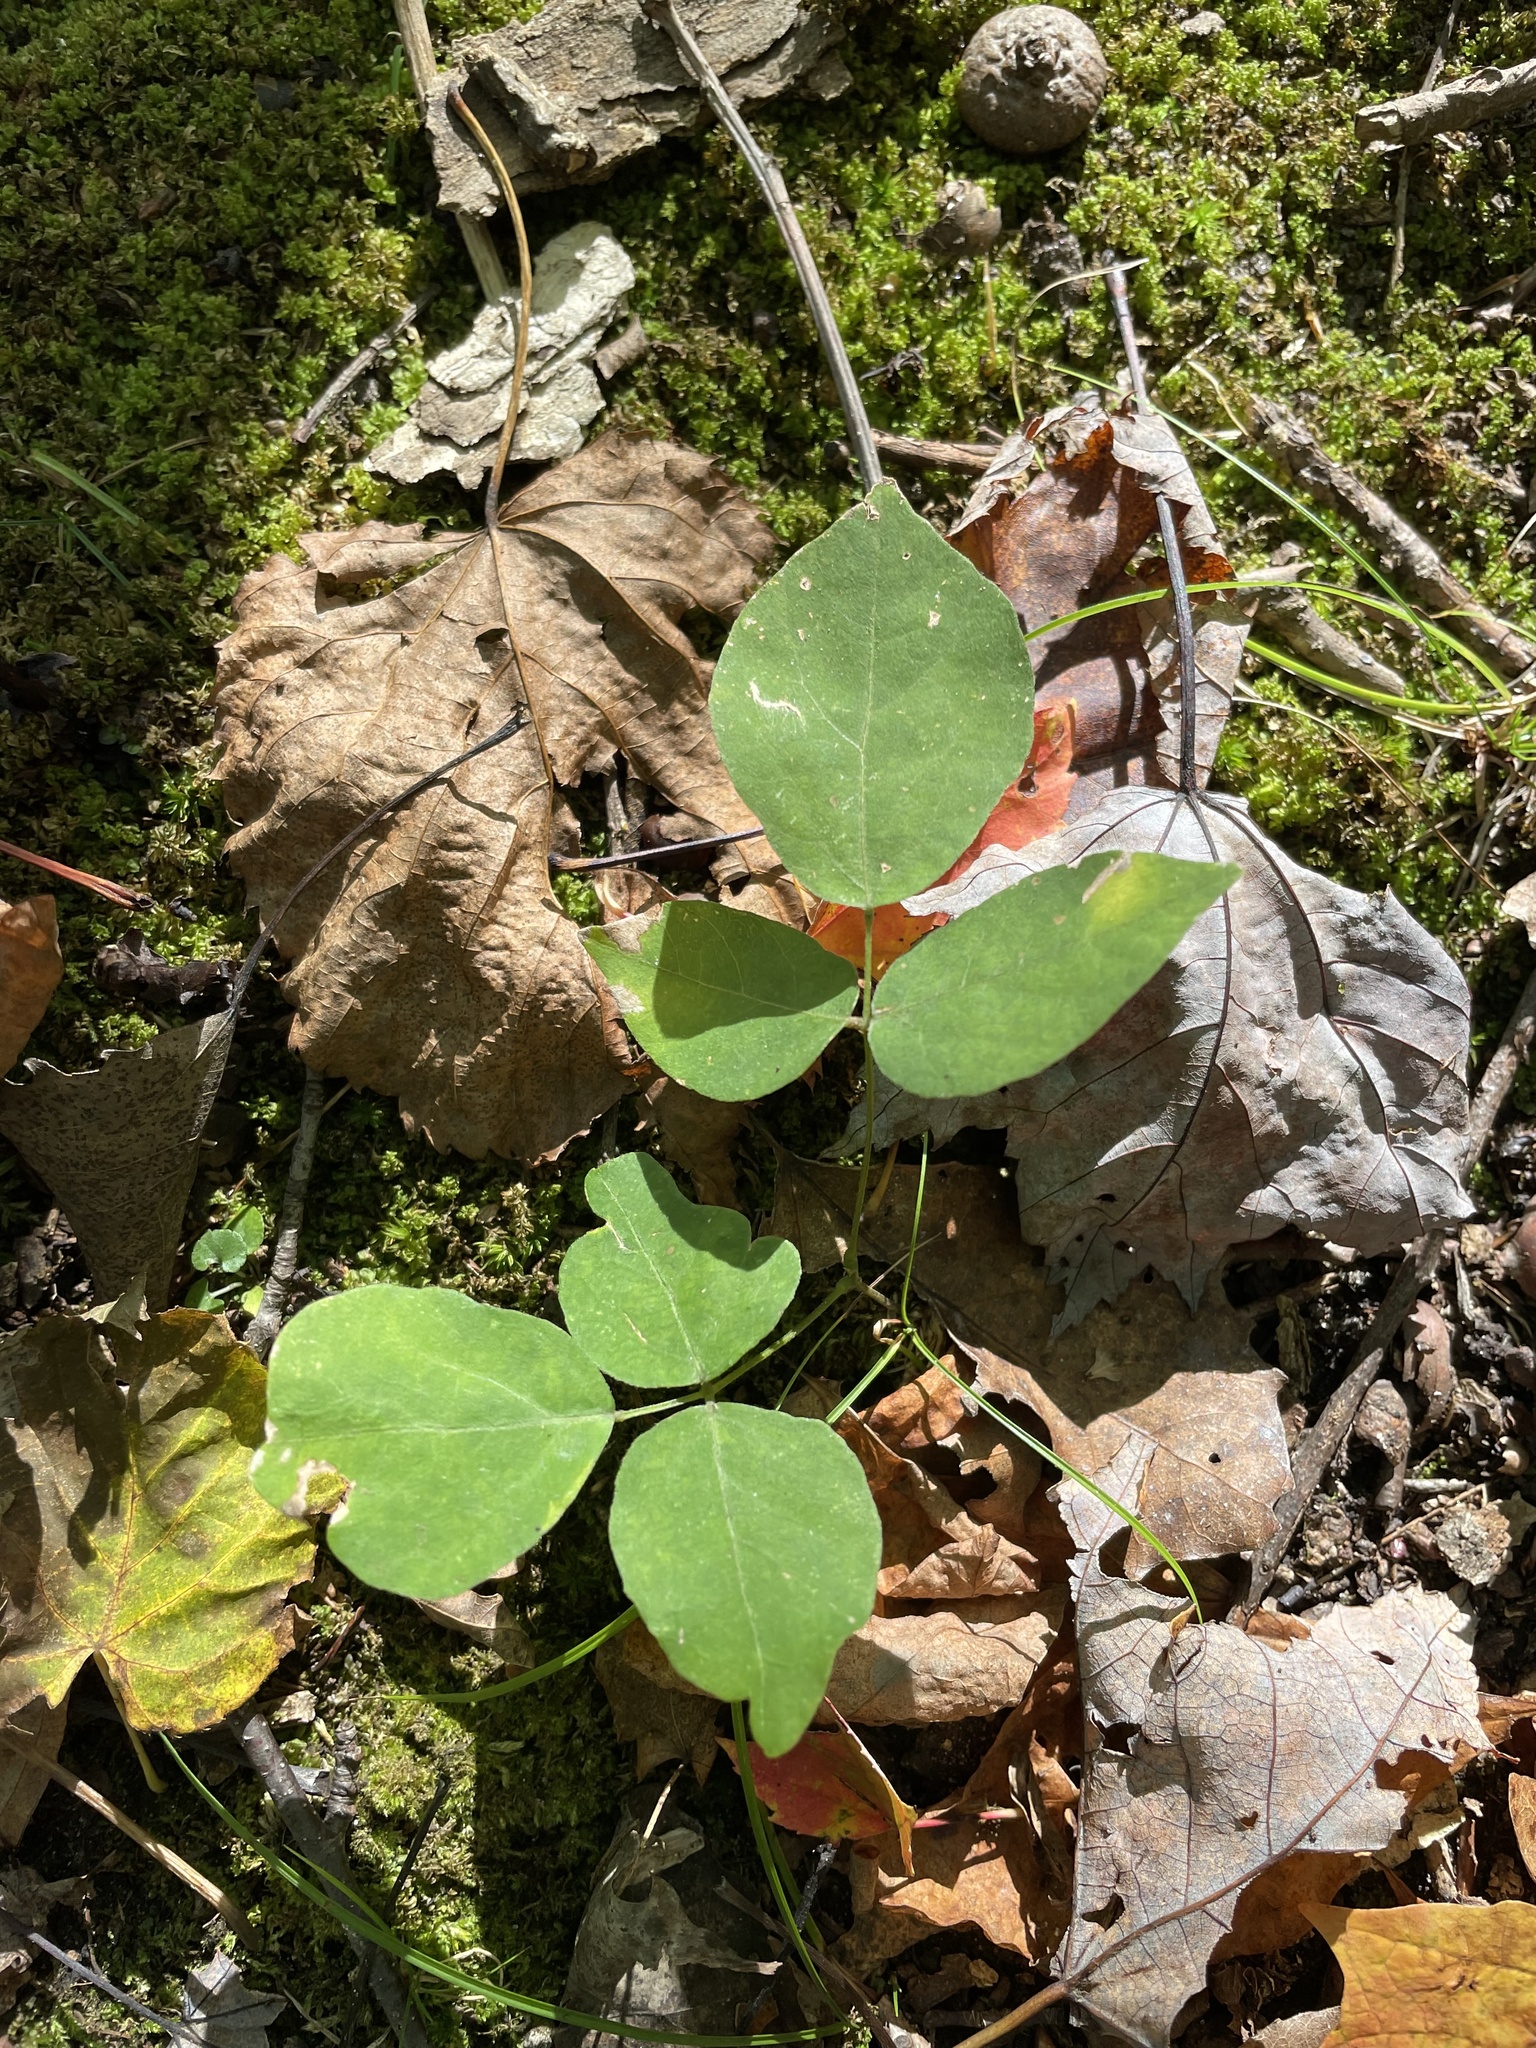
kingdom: Plantae
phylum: Tracheophyta
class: Magnoliopsida
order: Sapindales
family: Anacardiaceae
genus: Toxicodendron
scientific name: Toxicodendron radicans
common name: Poison ivy
